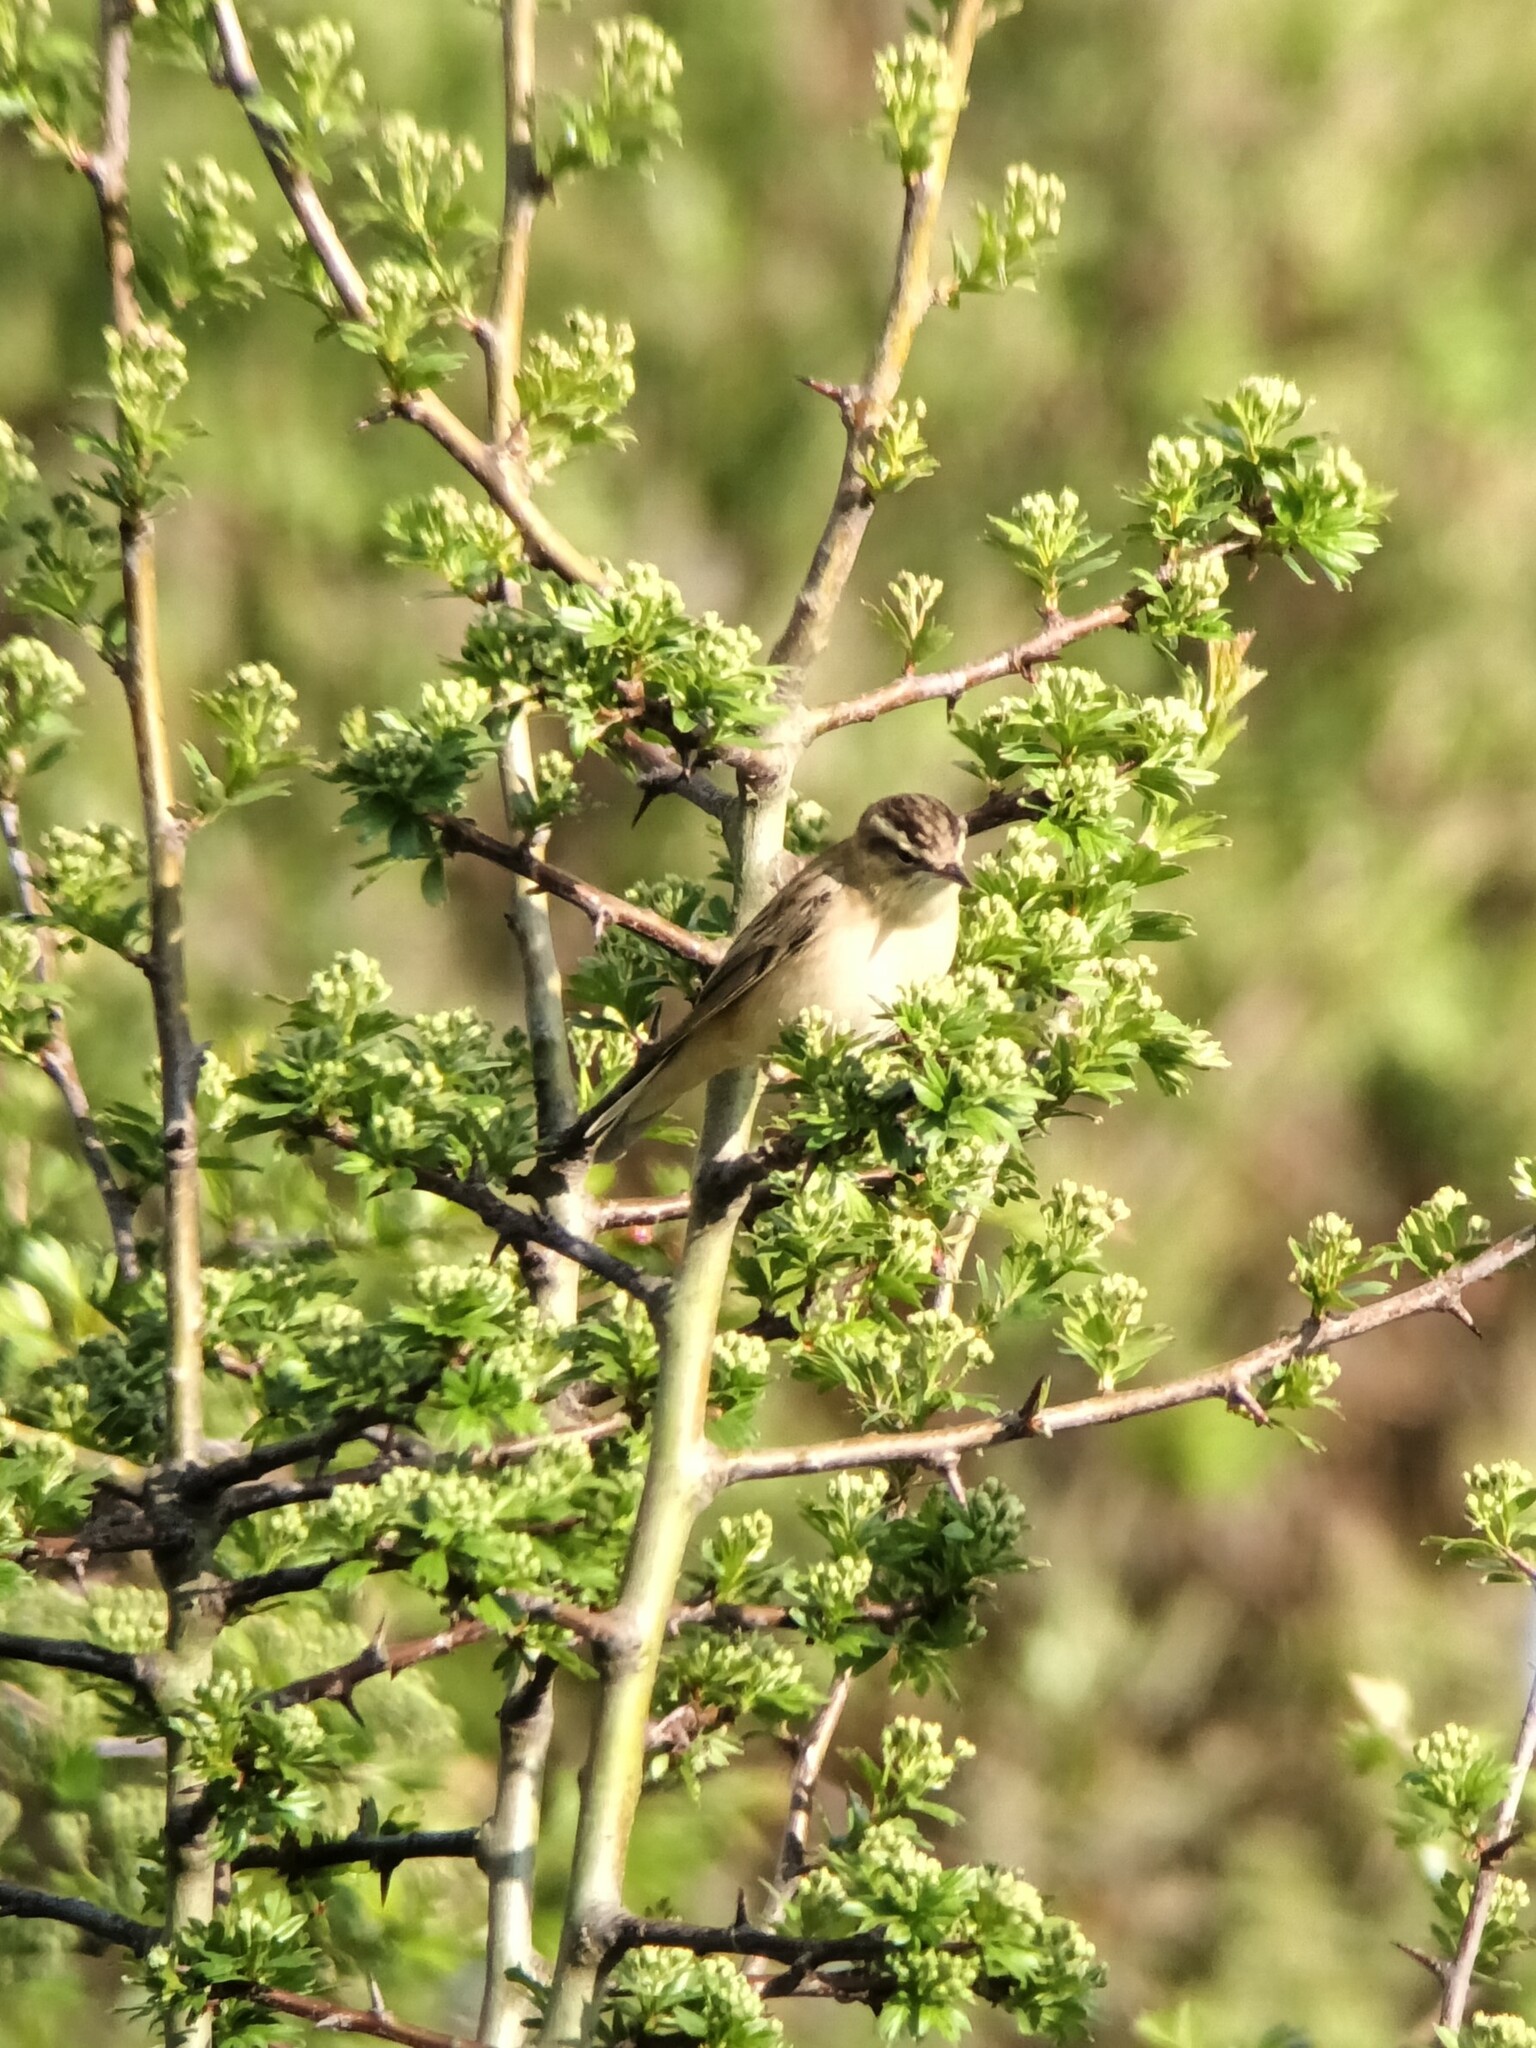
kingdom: Animalia
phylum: Chordata
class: Aves
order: Passeriformes
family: Acrocephalidae
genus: Acrocephalus
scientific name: Acrocephalus schoenobaenus
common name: Sedge warbler
